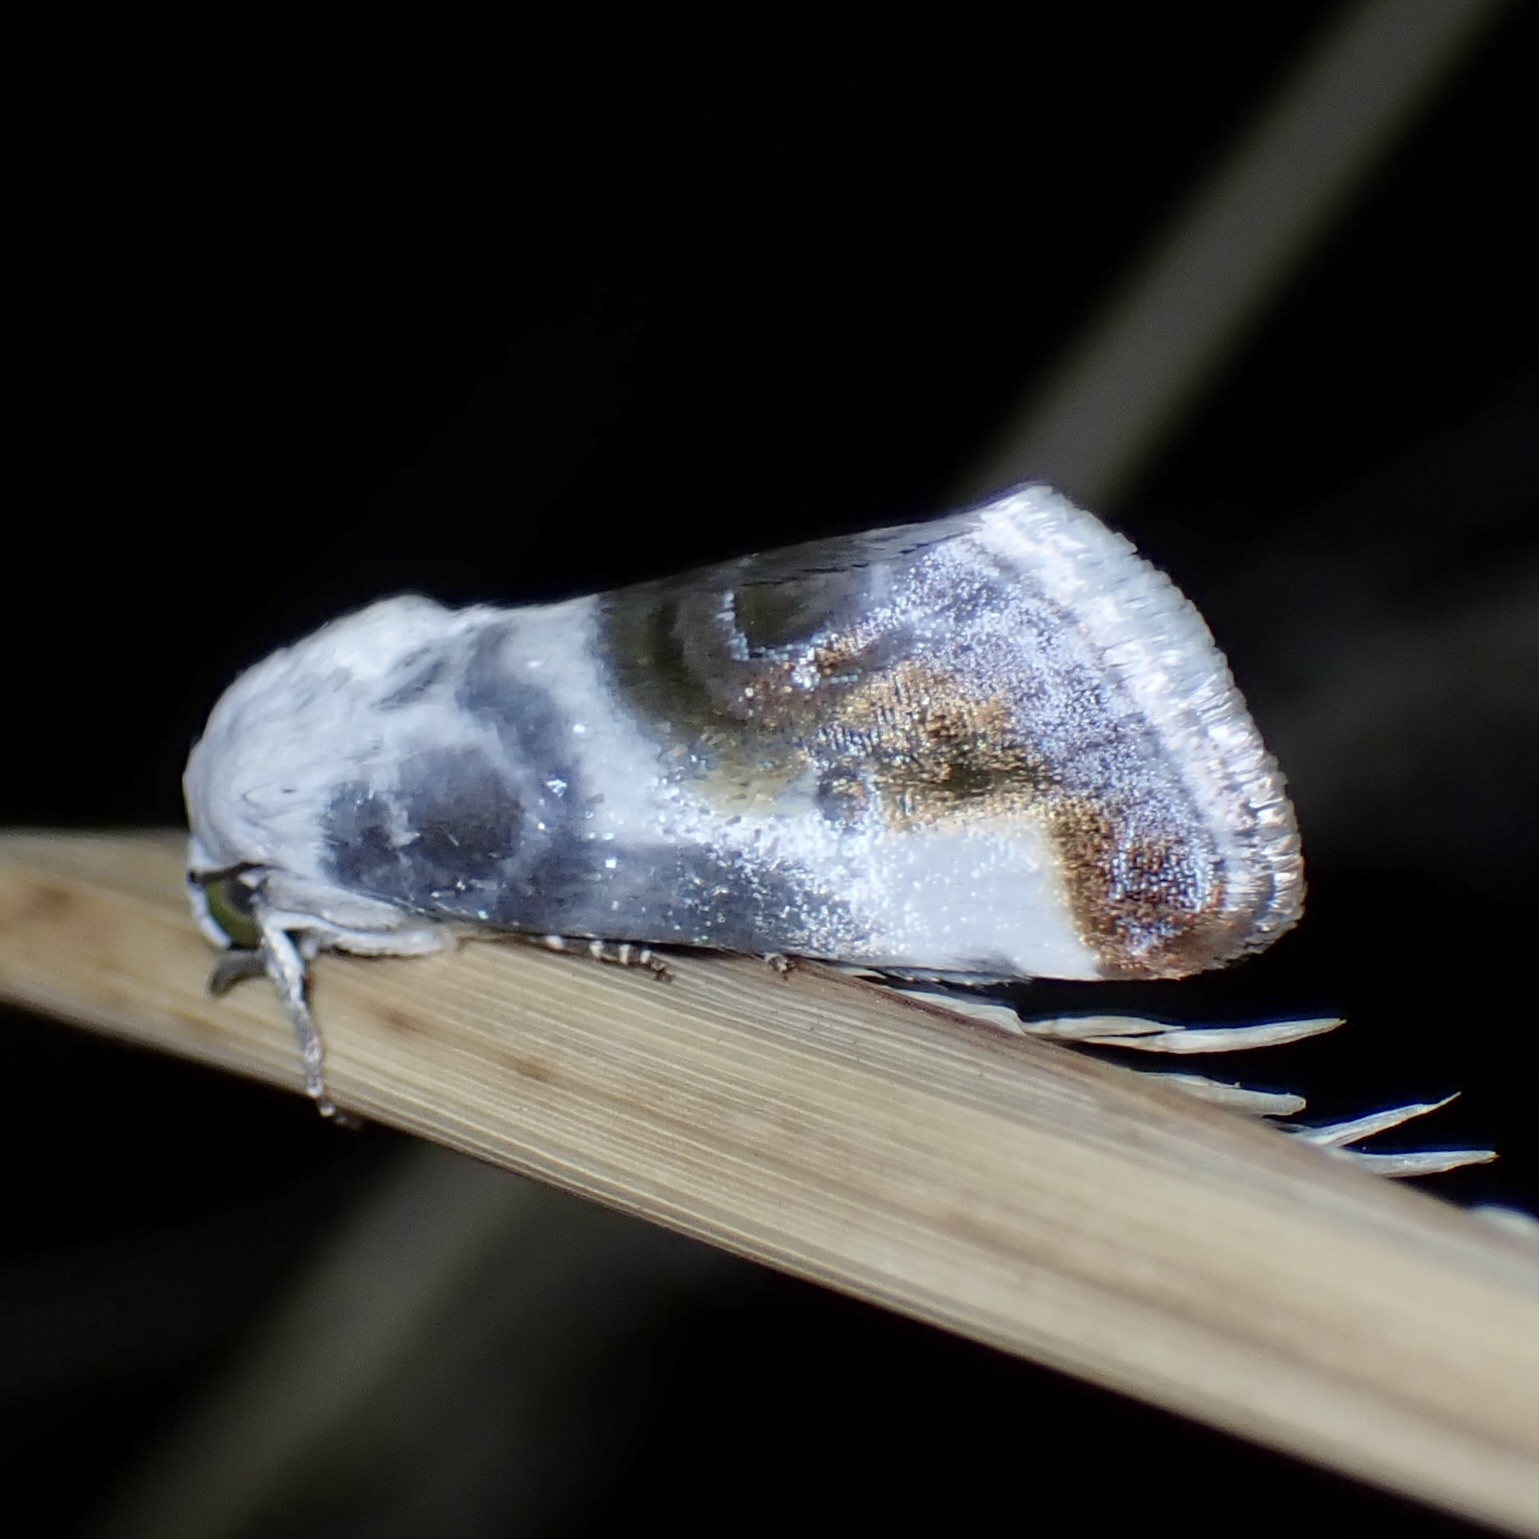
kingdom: Animalia
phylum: Arthropoda
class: Insecta
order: Lepidoptera
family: Noctuidae
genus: Acontia
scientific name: Acontia cretata
